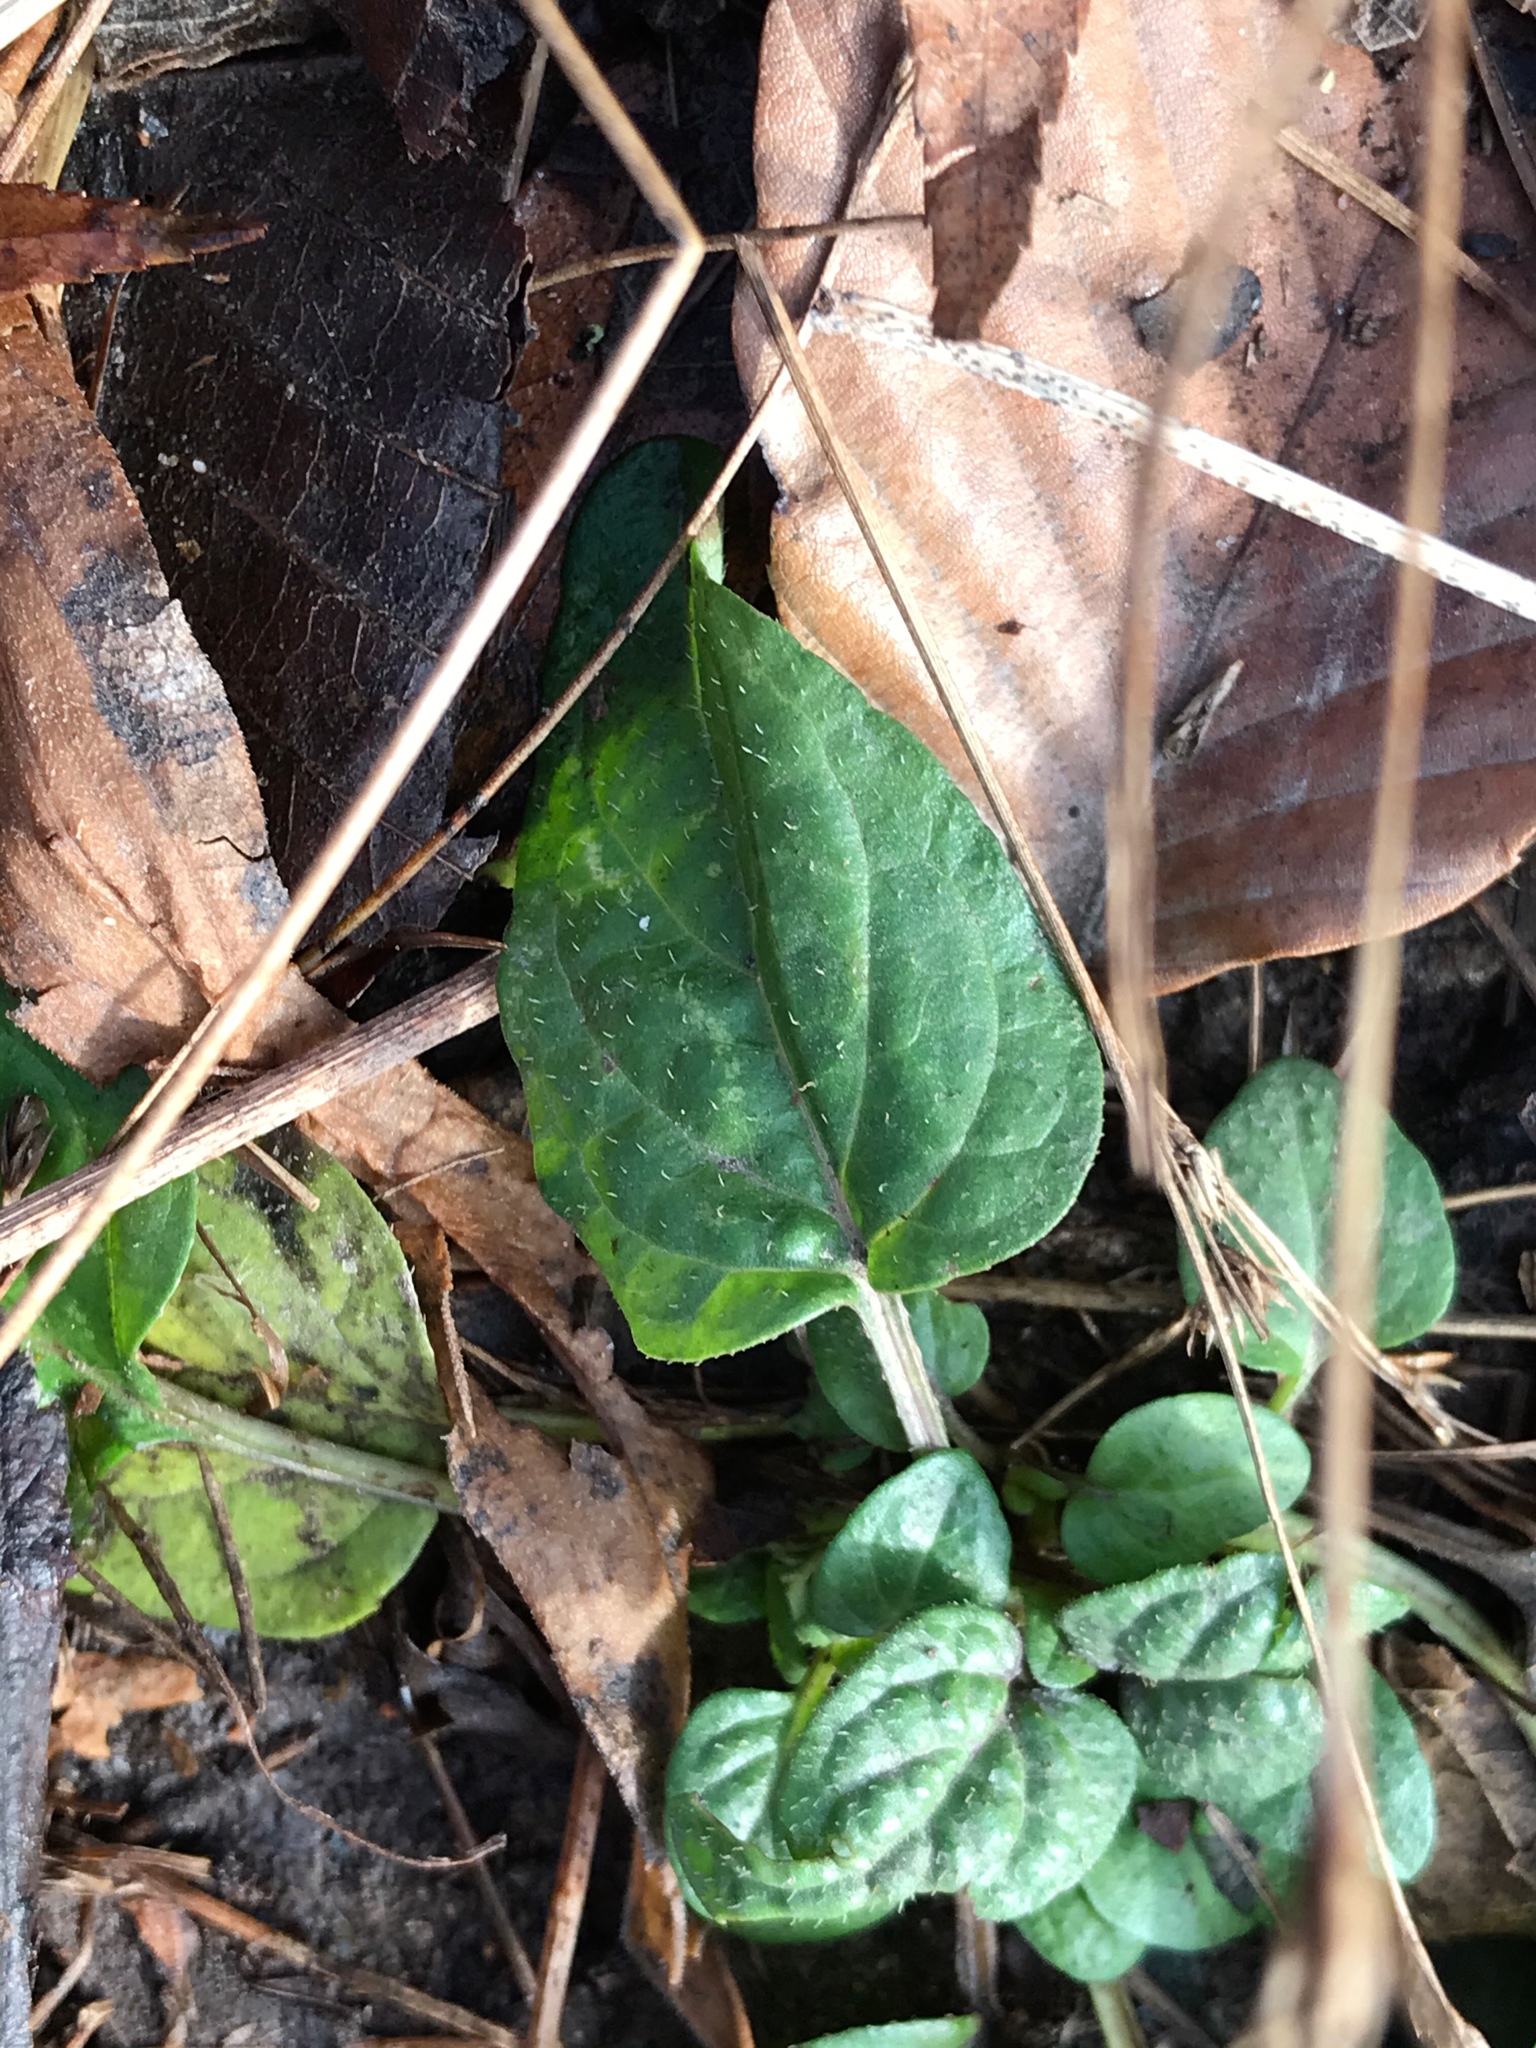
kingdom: Plantae
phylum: Tracheophyta
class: Magnoliopsida
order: Lamiales
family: Lamiaceae
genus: Prunella
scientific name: Prunella vulgaris
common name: Heal-all
